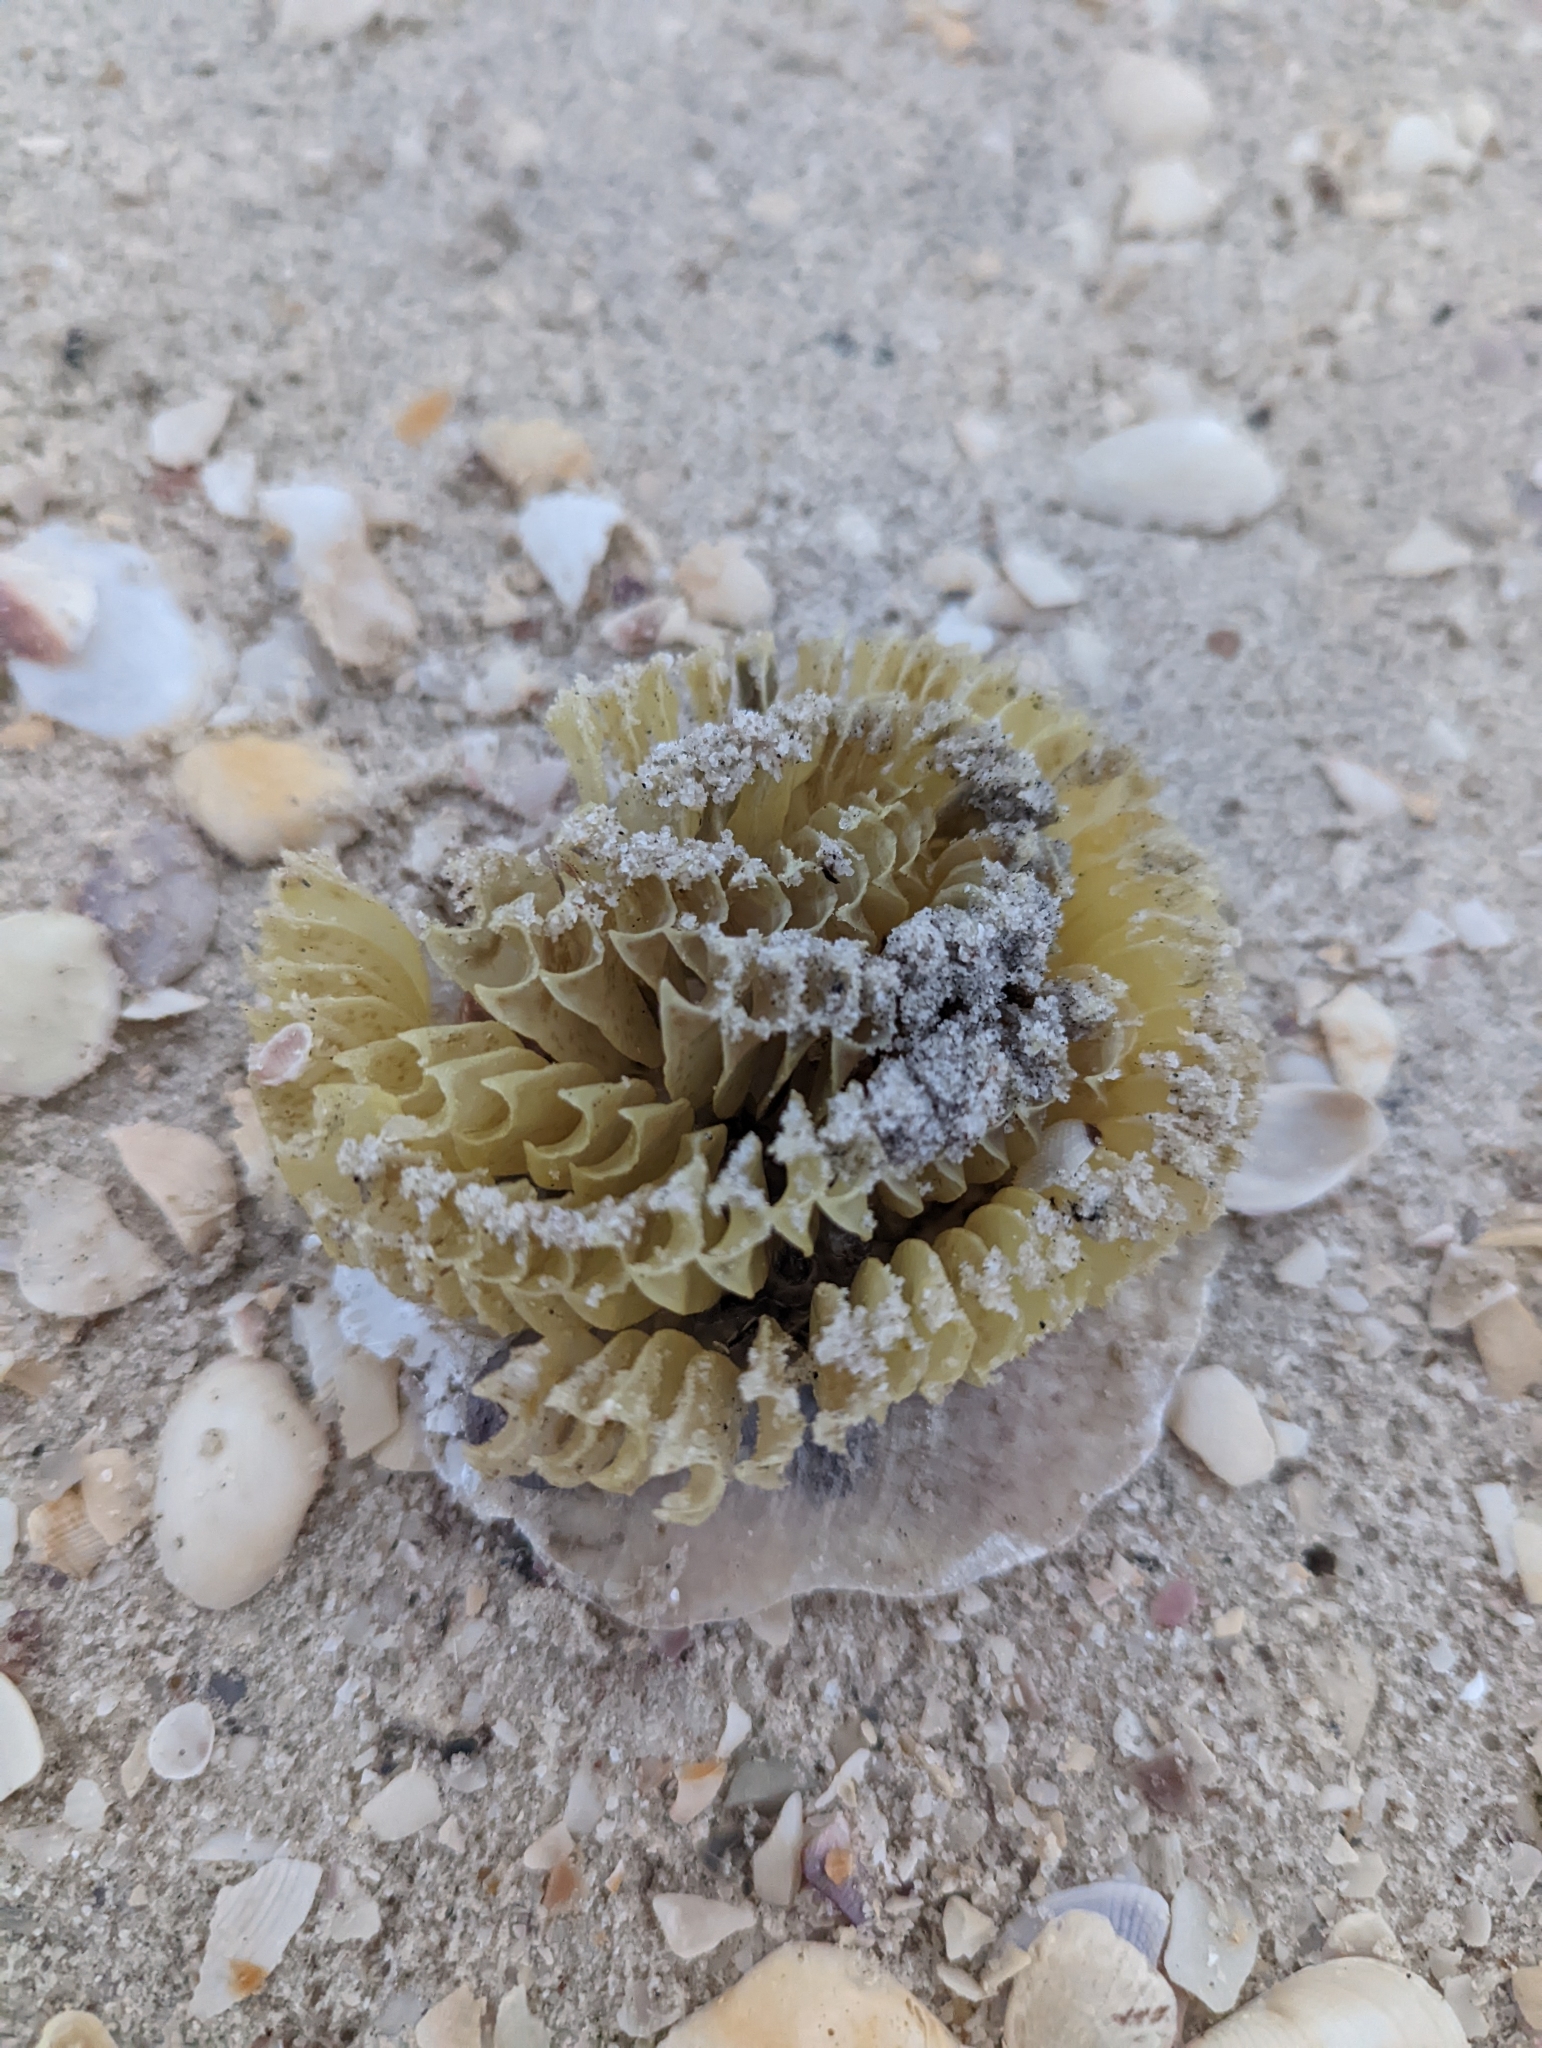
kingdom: Animalia
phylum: Mollusca
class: Gastropoda
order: Neogastropoda
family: Melongenidae
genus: Volegalea
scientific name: Volegalea cochlidium
